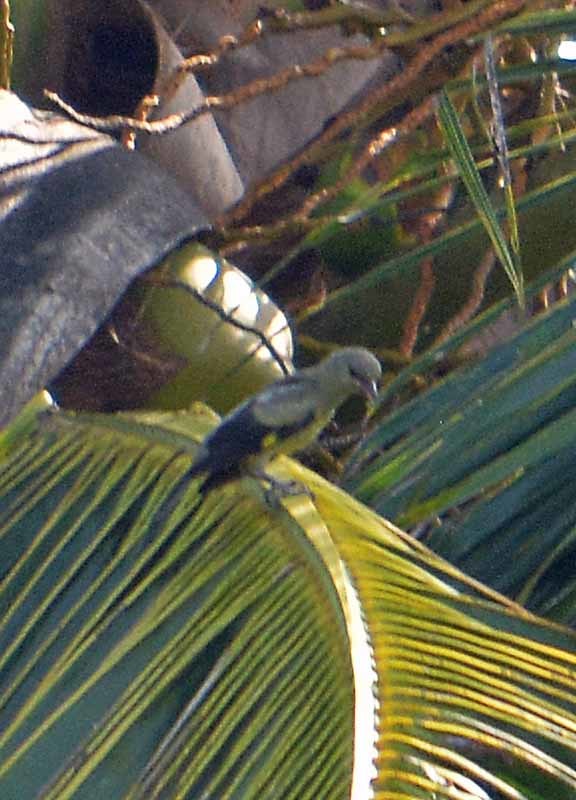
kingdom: Animalia
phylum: Chordata
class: Aves
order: Passeriformes
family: Thraupidae
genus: Thraupis
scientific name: Thraupis abbas
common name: Yellow-winged tanager
